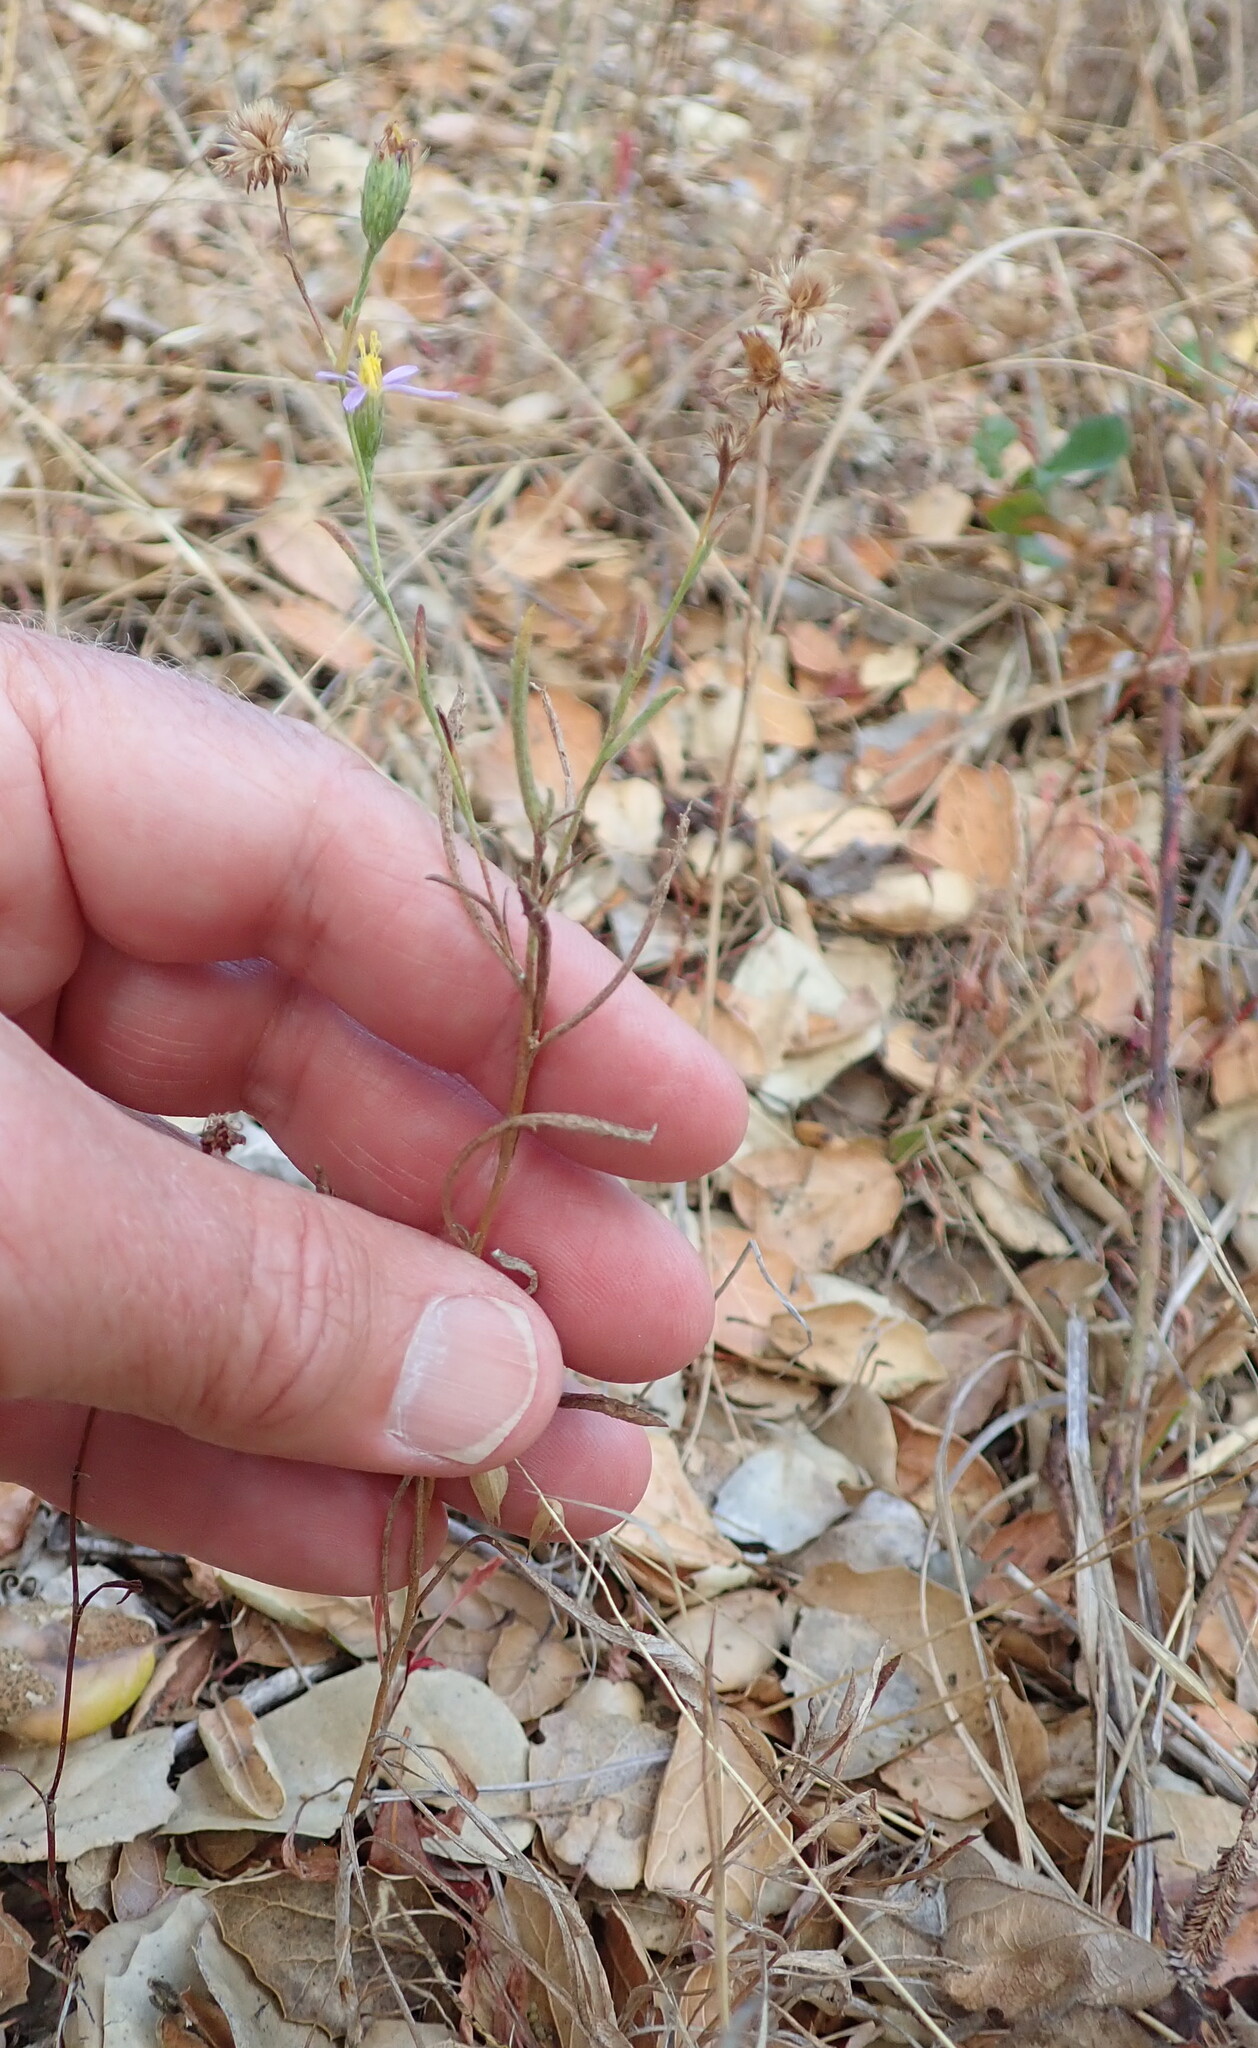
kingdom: Plantae
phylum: Tracheophyta
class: Magnoliopsida
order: Asterales
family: Asteraceae
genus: Corethrogyne
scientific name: Corethrogyne filaginifolia
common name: Sand-aster
